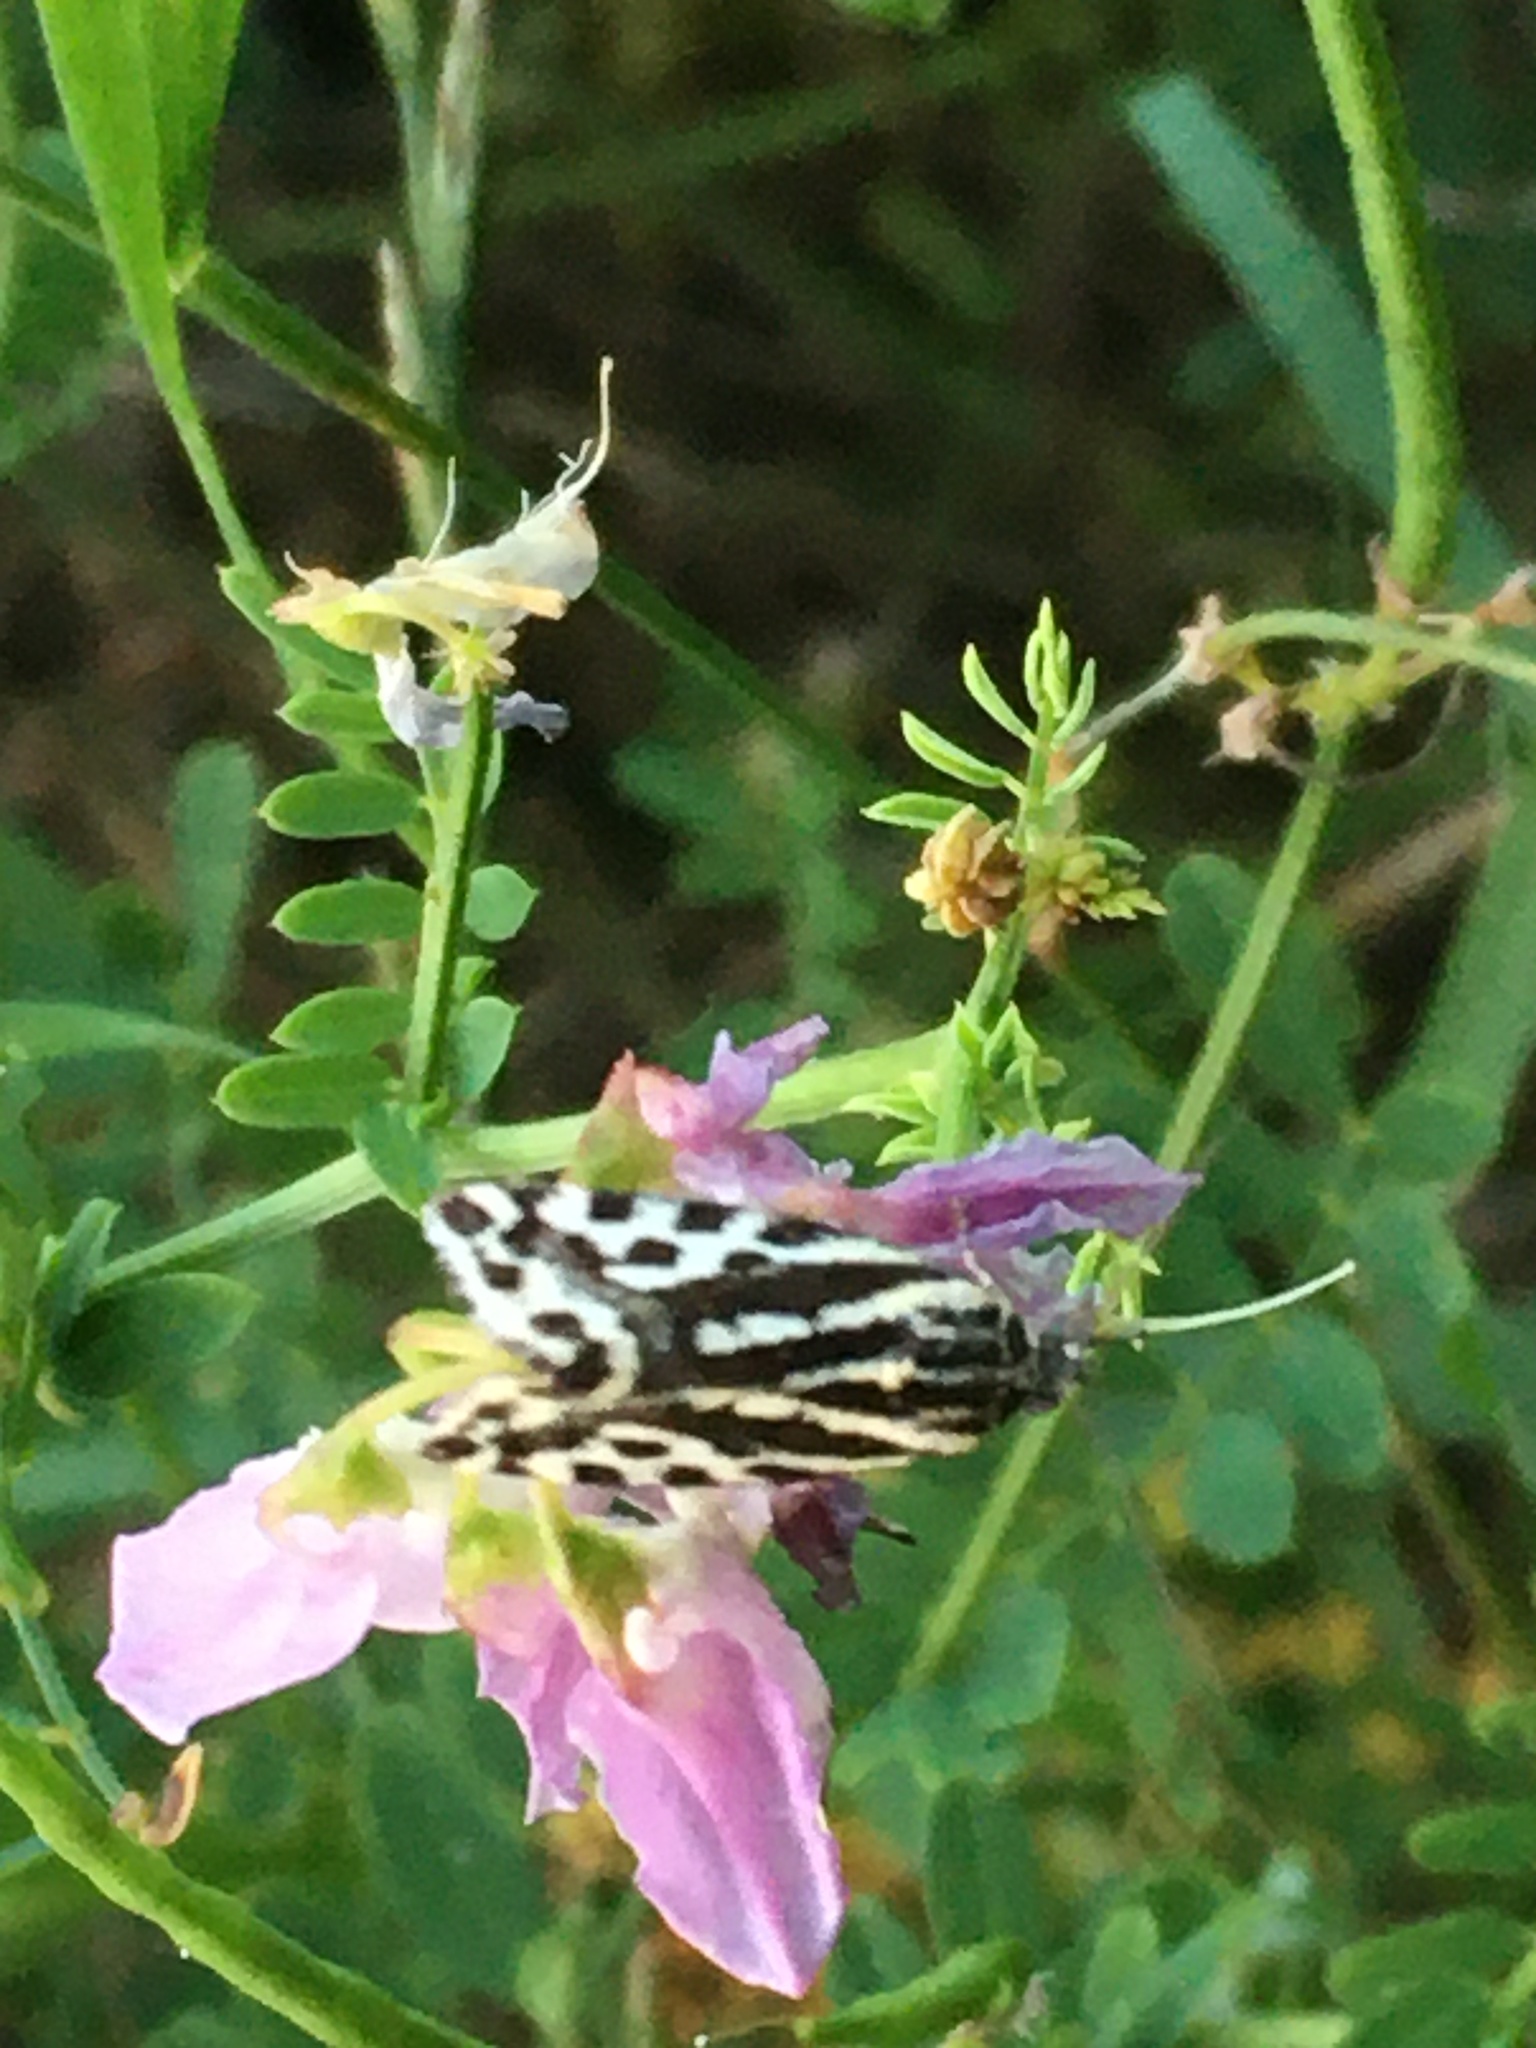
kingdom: Animalia
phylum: Arthropoda
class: Insecta
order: Lepidoptera
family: Noctuidae
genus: Acontia
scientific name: Acontia trabealis
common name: Spotted sulphur
